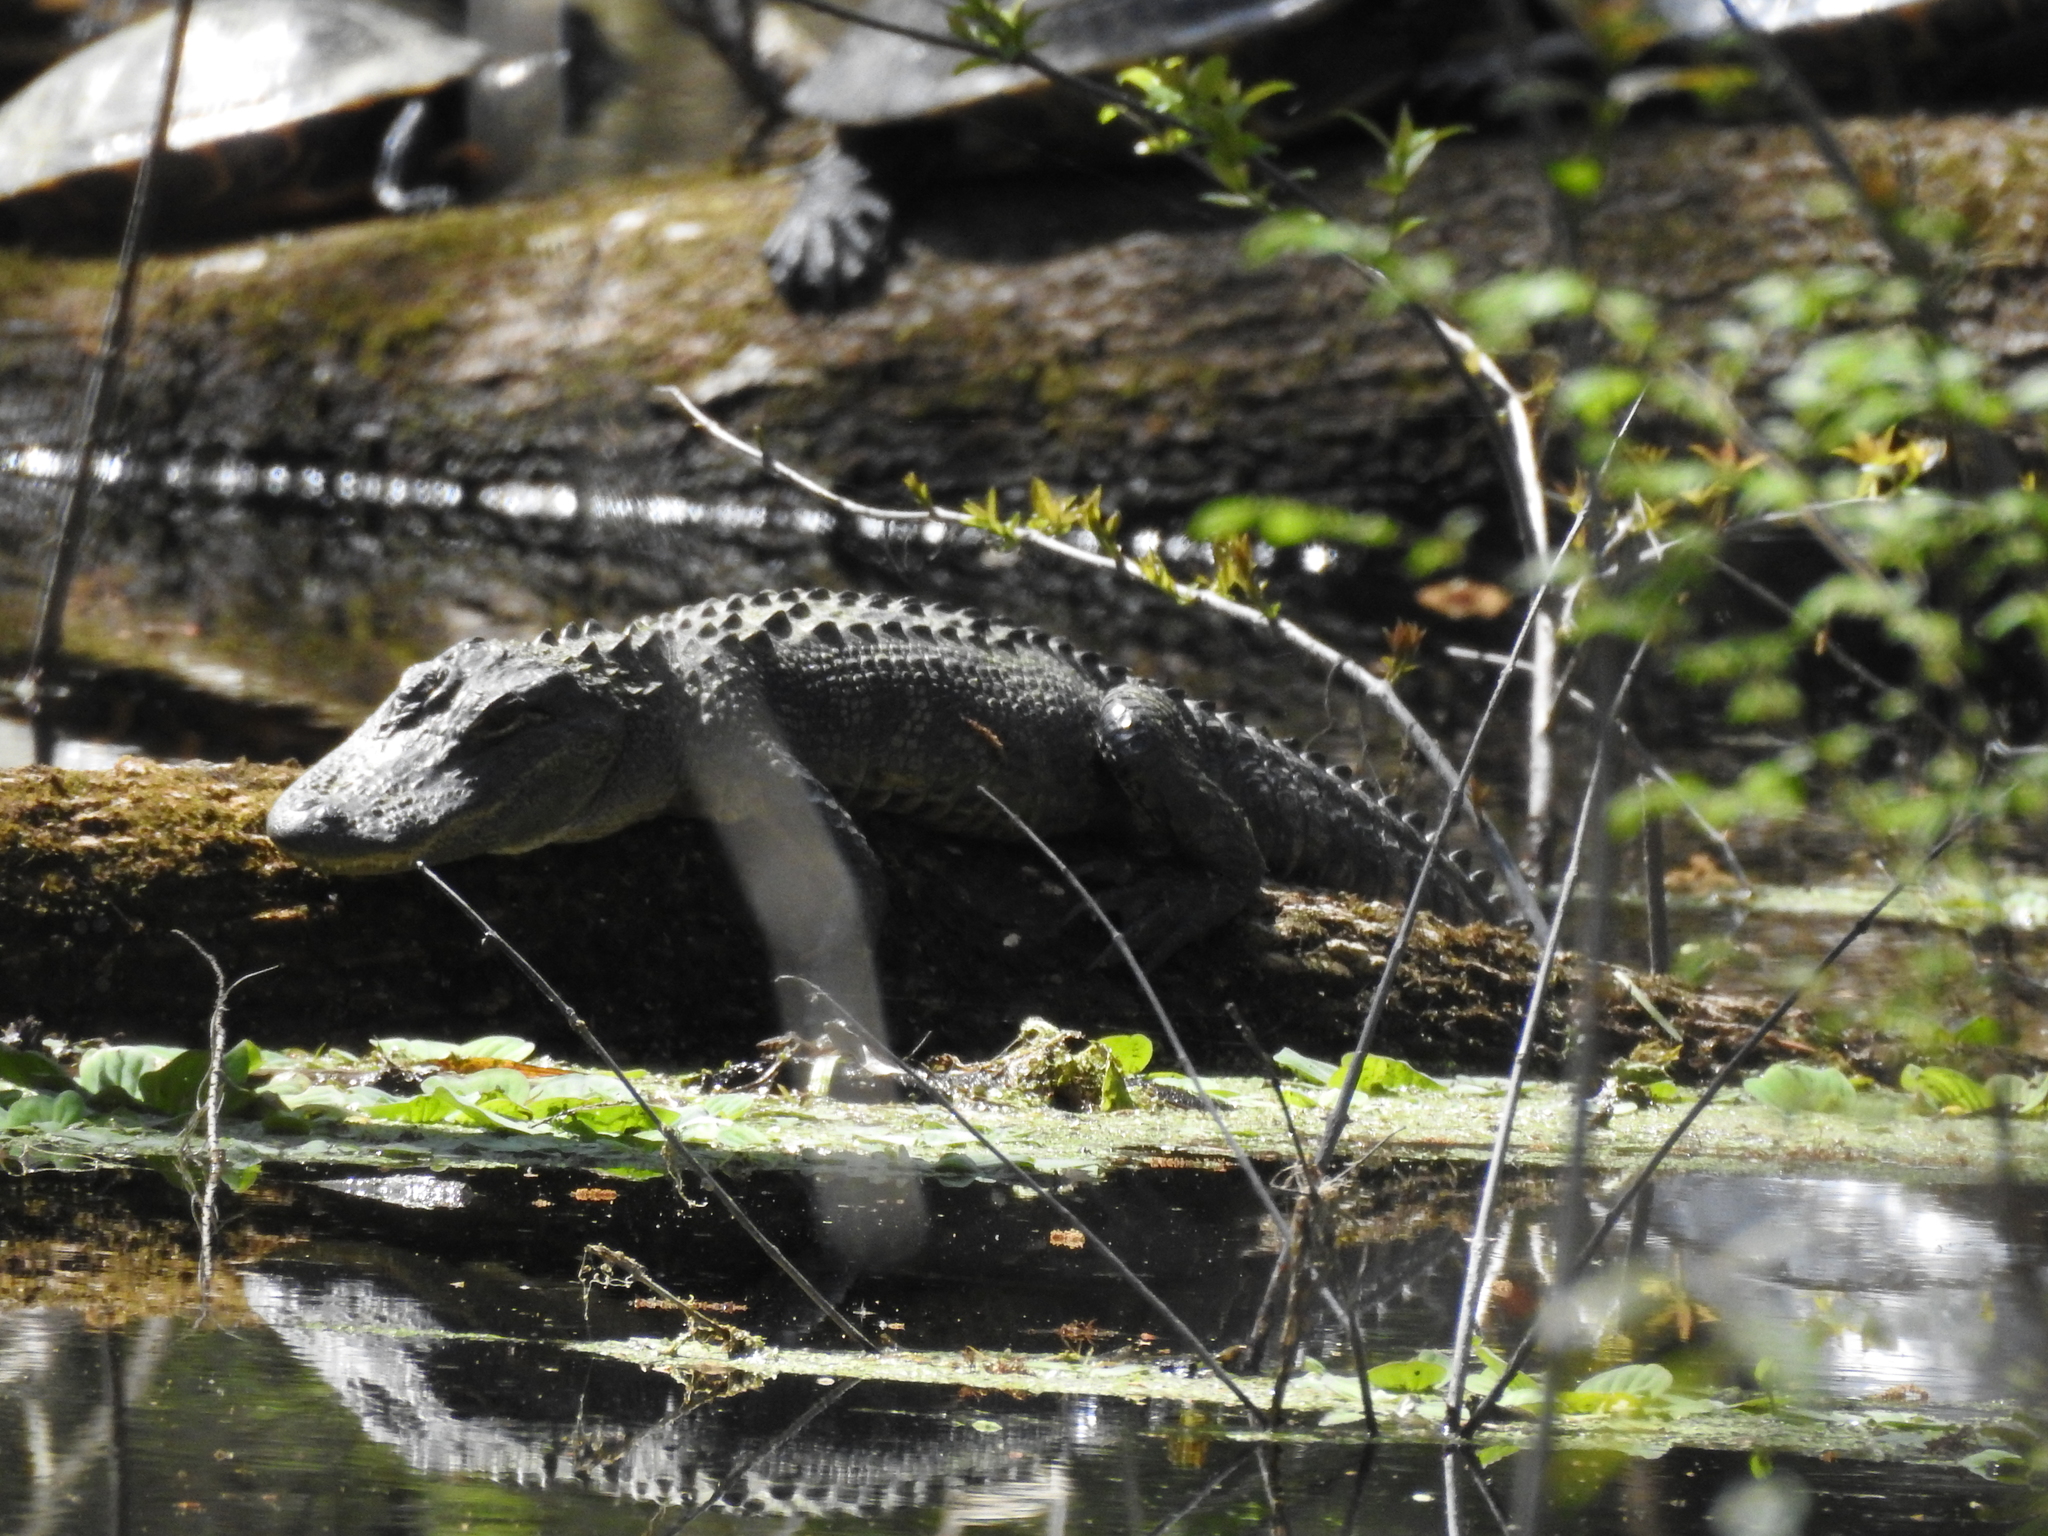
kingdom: Animalia
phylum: Chordata
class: Crocodylia
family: Alligatoridae
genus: Alligator
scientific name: Alligator mississippiensis
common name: American alligator
